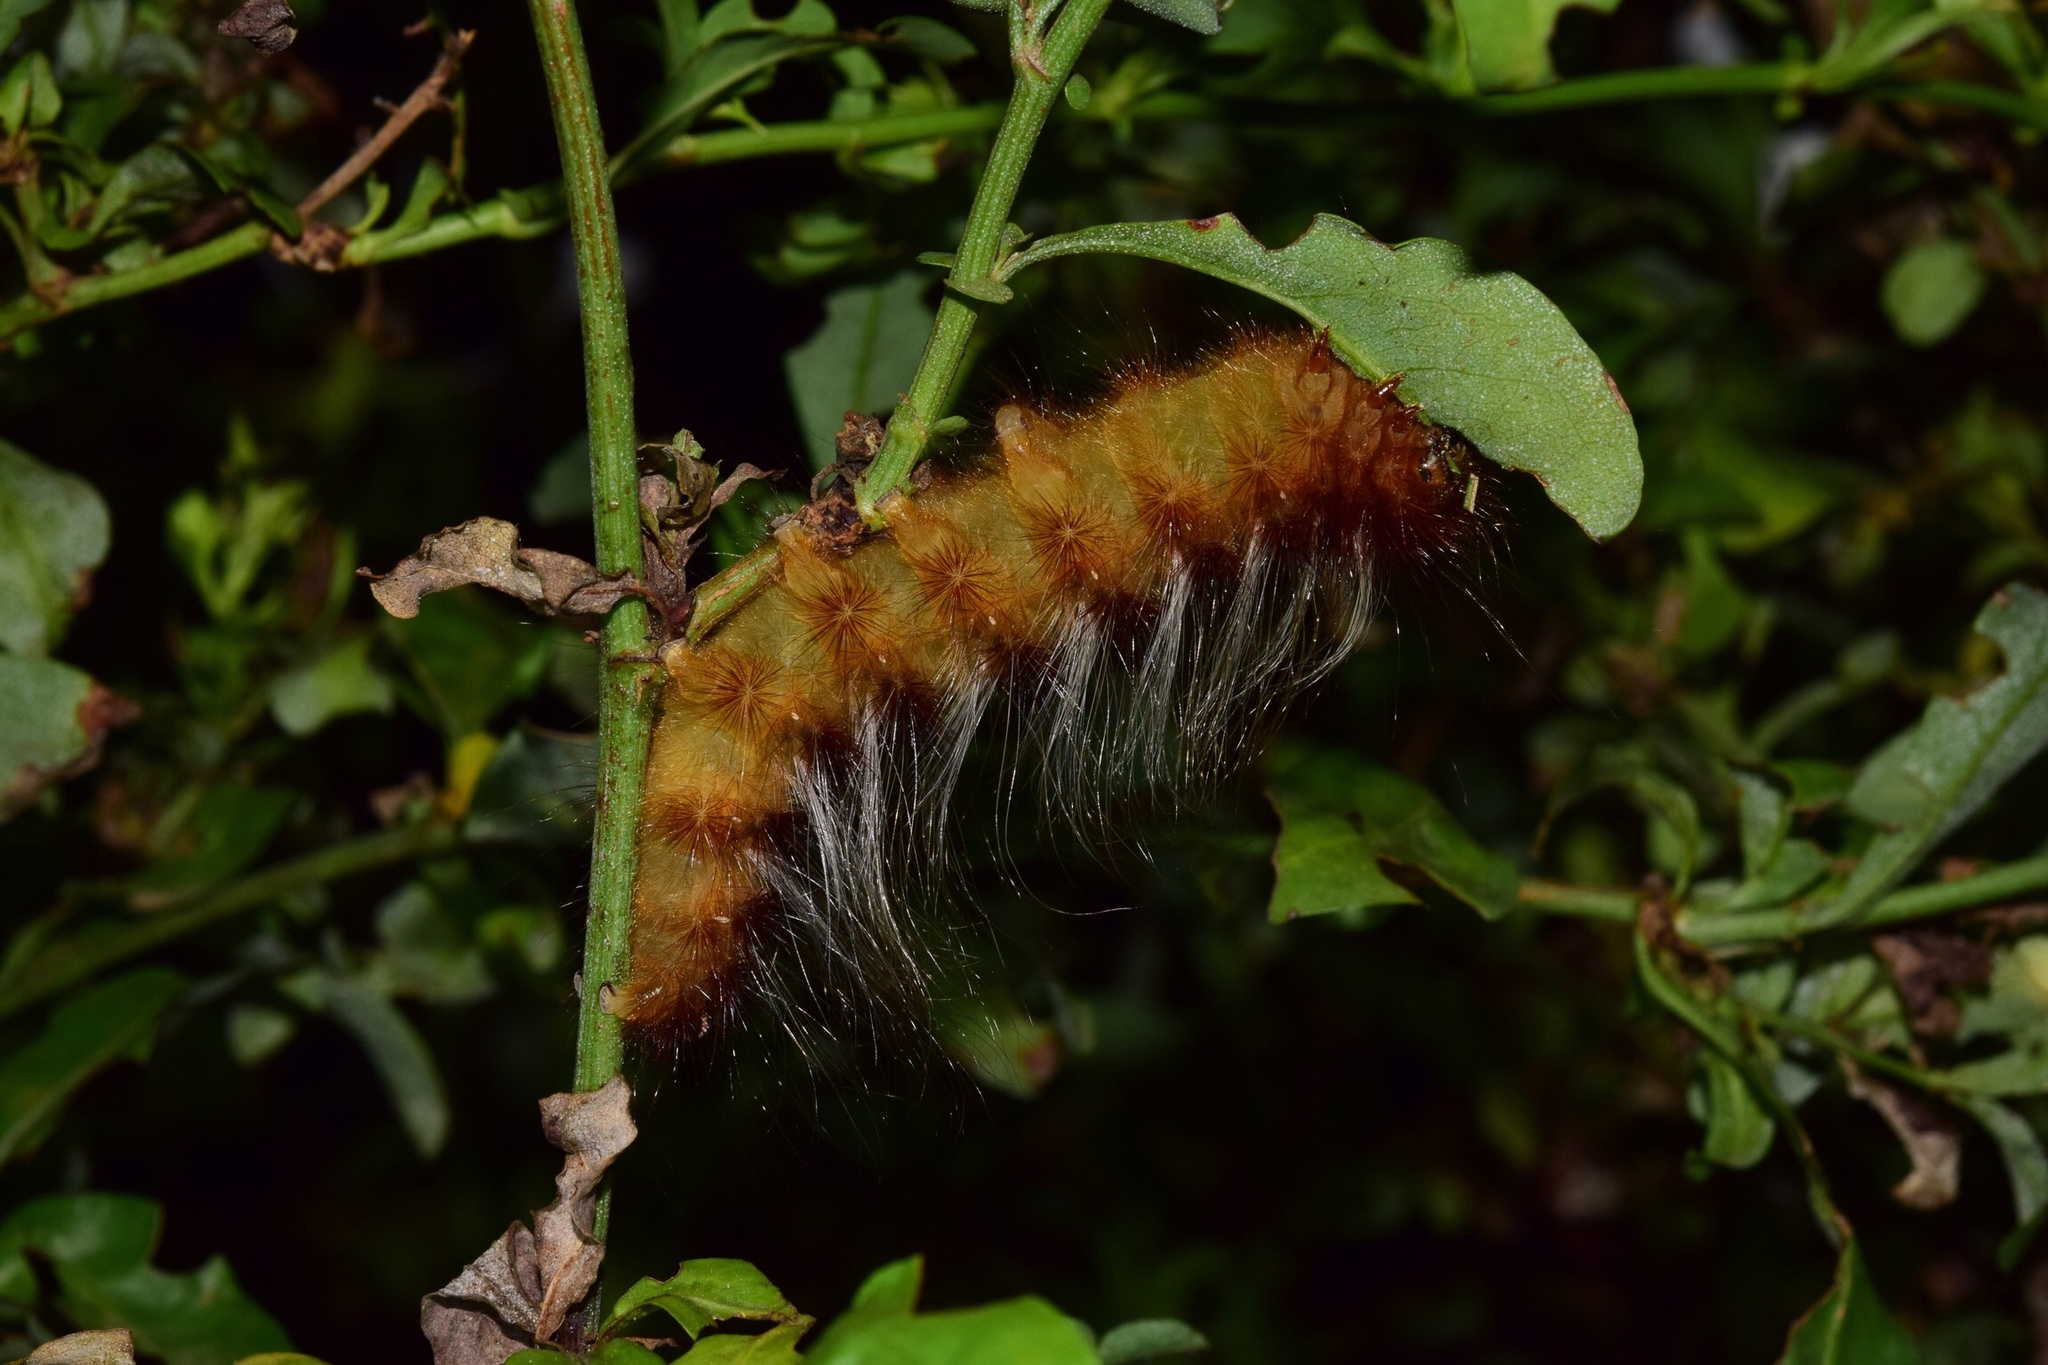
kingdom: Animalia
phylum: Arthropoda
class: Insecta
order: Lepidoptera
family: Eupterotidae
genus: Striphnopteryx
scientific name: Striphnopteryx edulis
